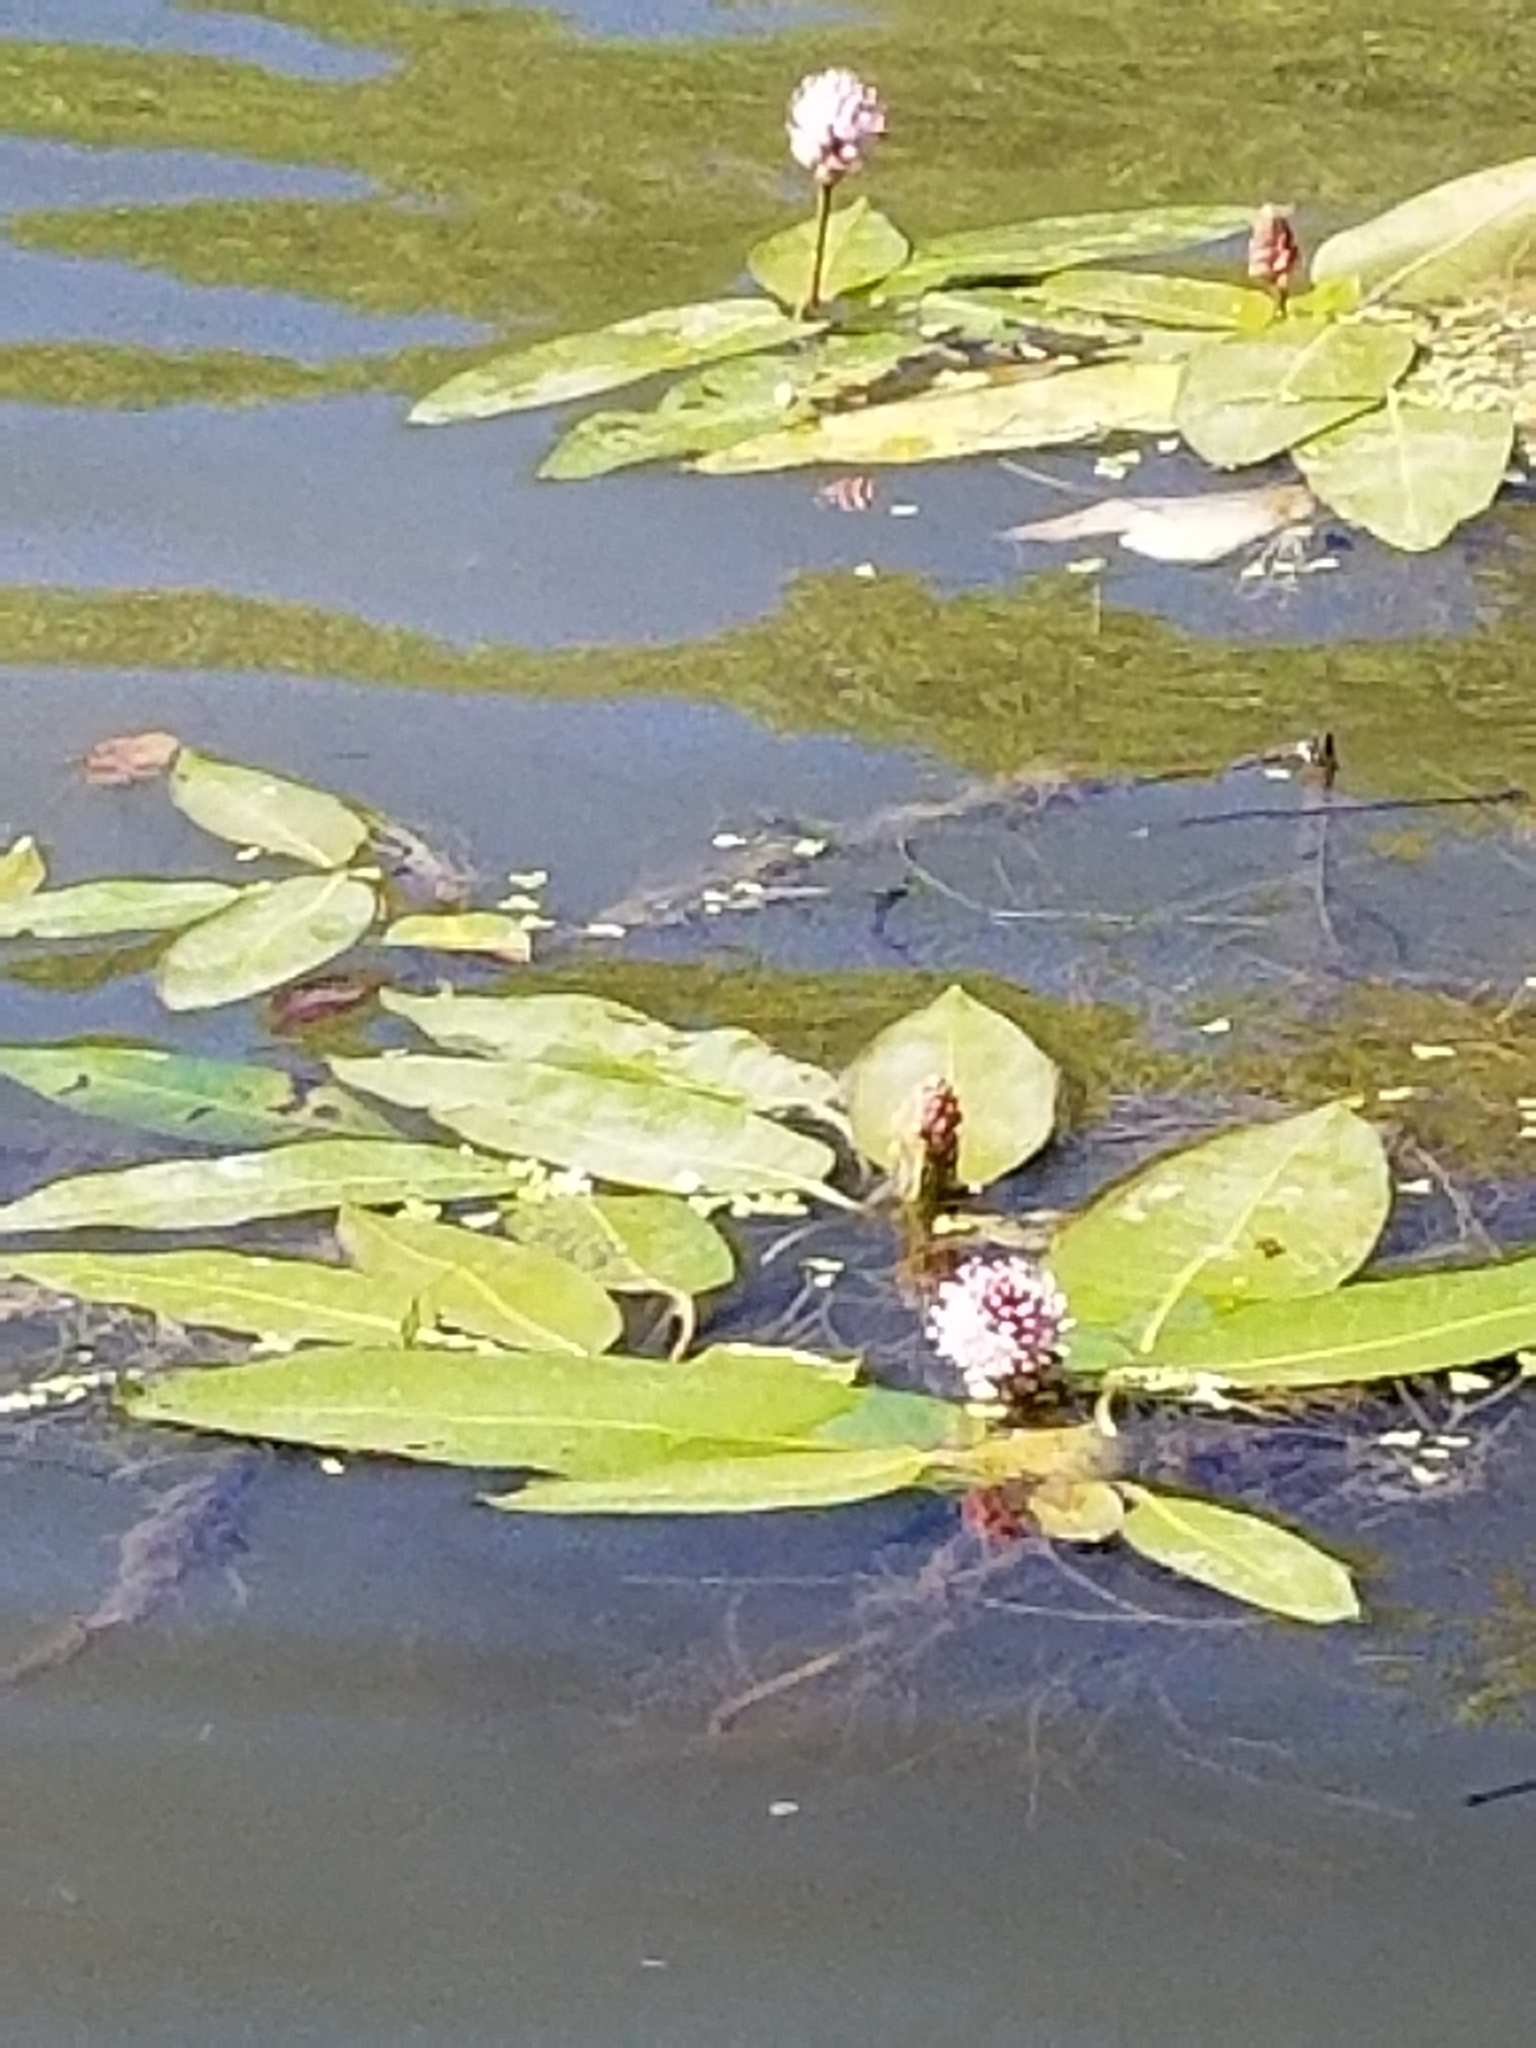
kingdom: Plantae
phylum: Tracheophyta
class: Magnoliopsida
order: Caryophyllales
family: Polygonaceae
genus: Persicaria
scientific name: Persicaria amphibia
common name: Amphibious bistort
